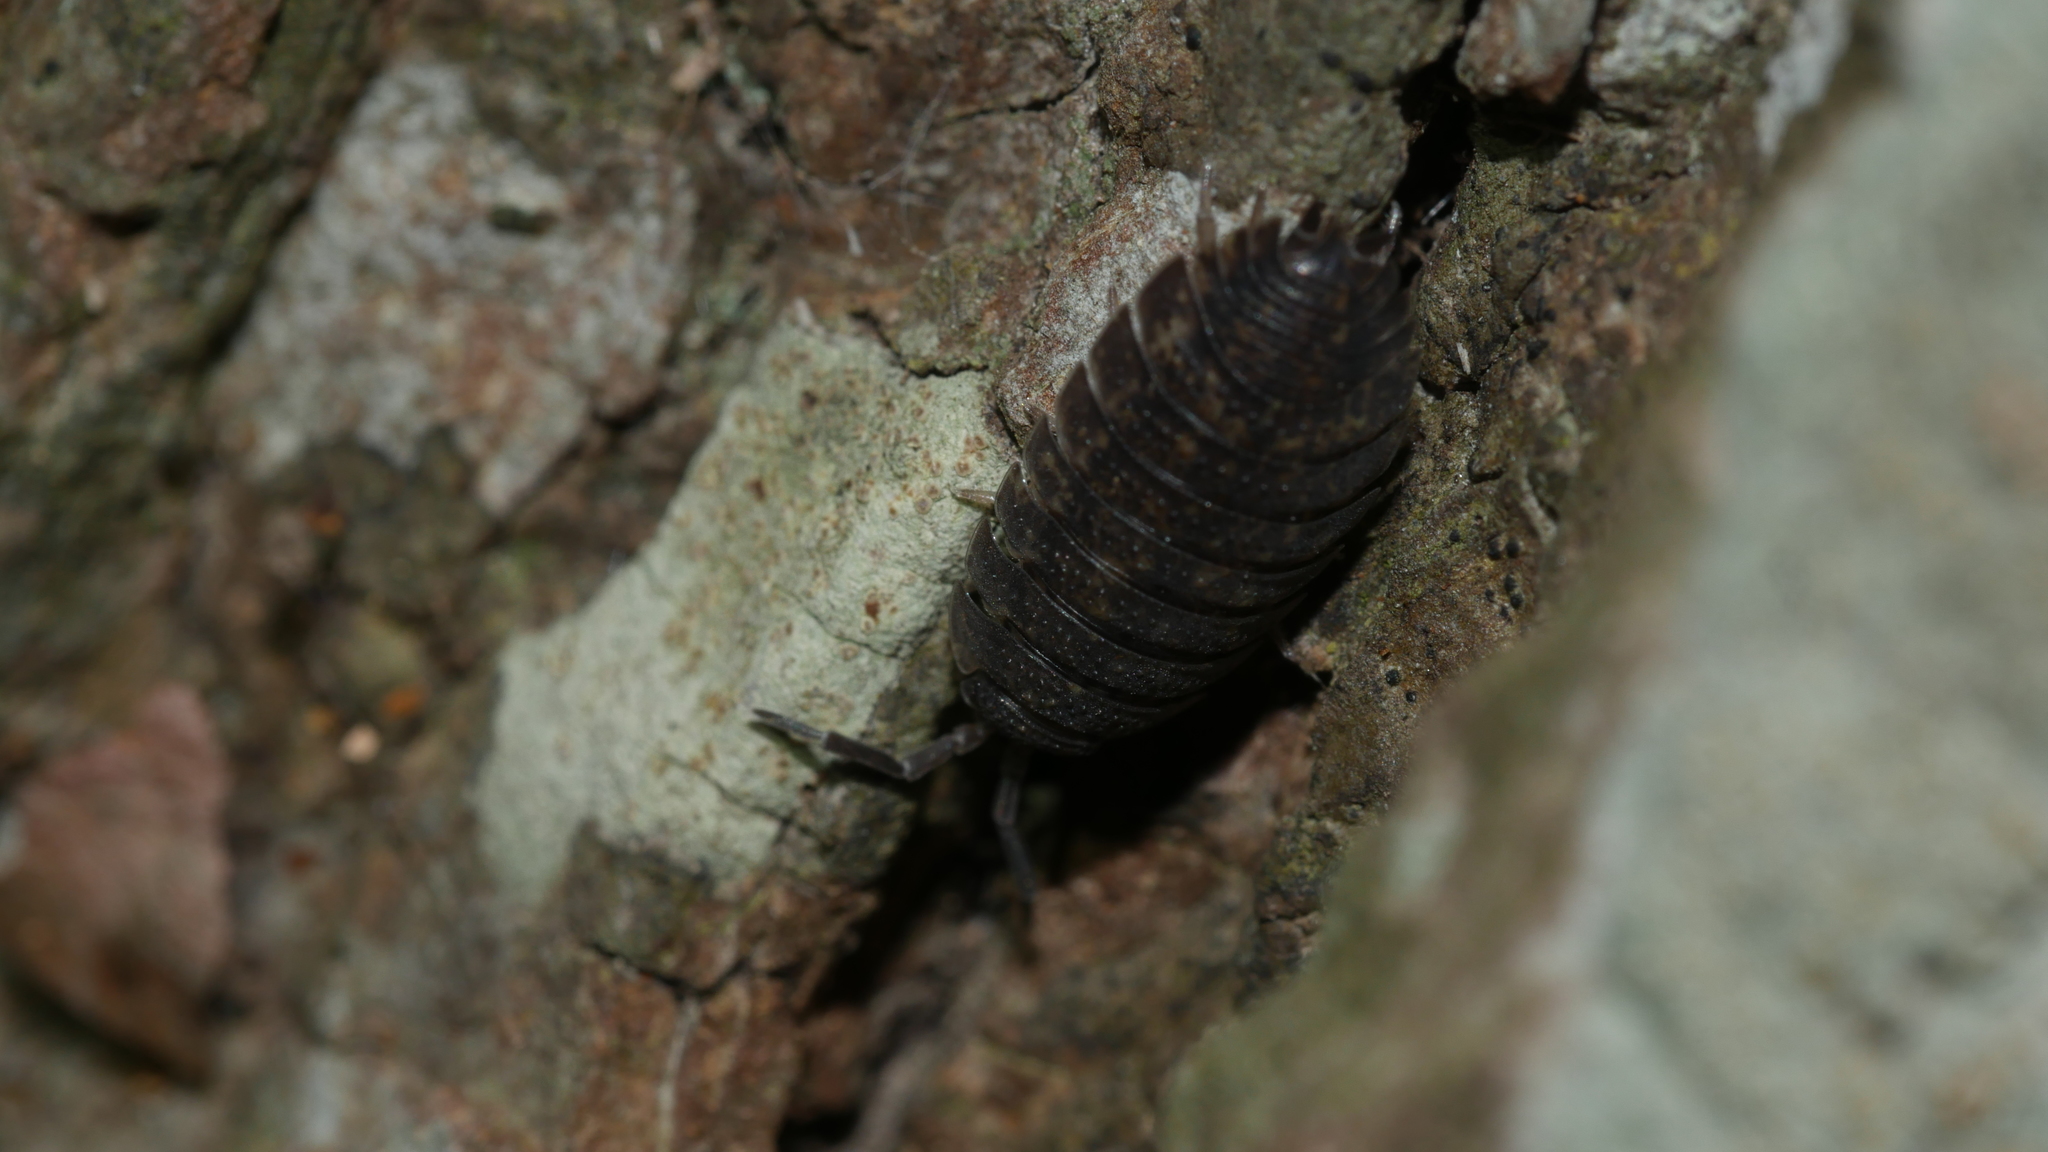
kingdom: Animalia
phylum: Arthropoda
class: Malacostraca
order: Isopoda
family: Porcellionidae
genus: Porcellio
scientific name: Porcellio scaber
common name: Common rough woodlouse
